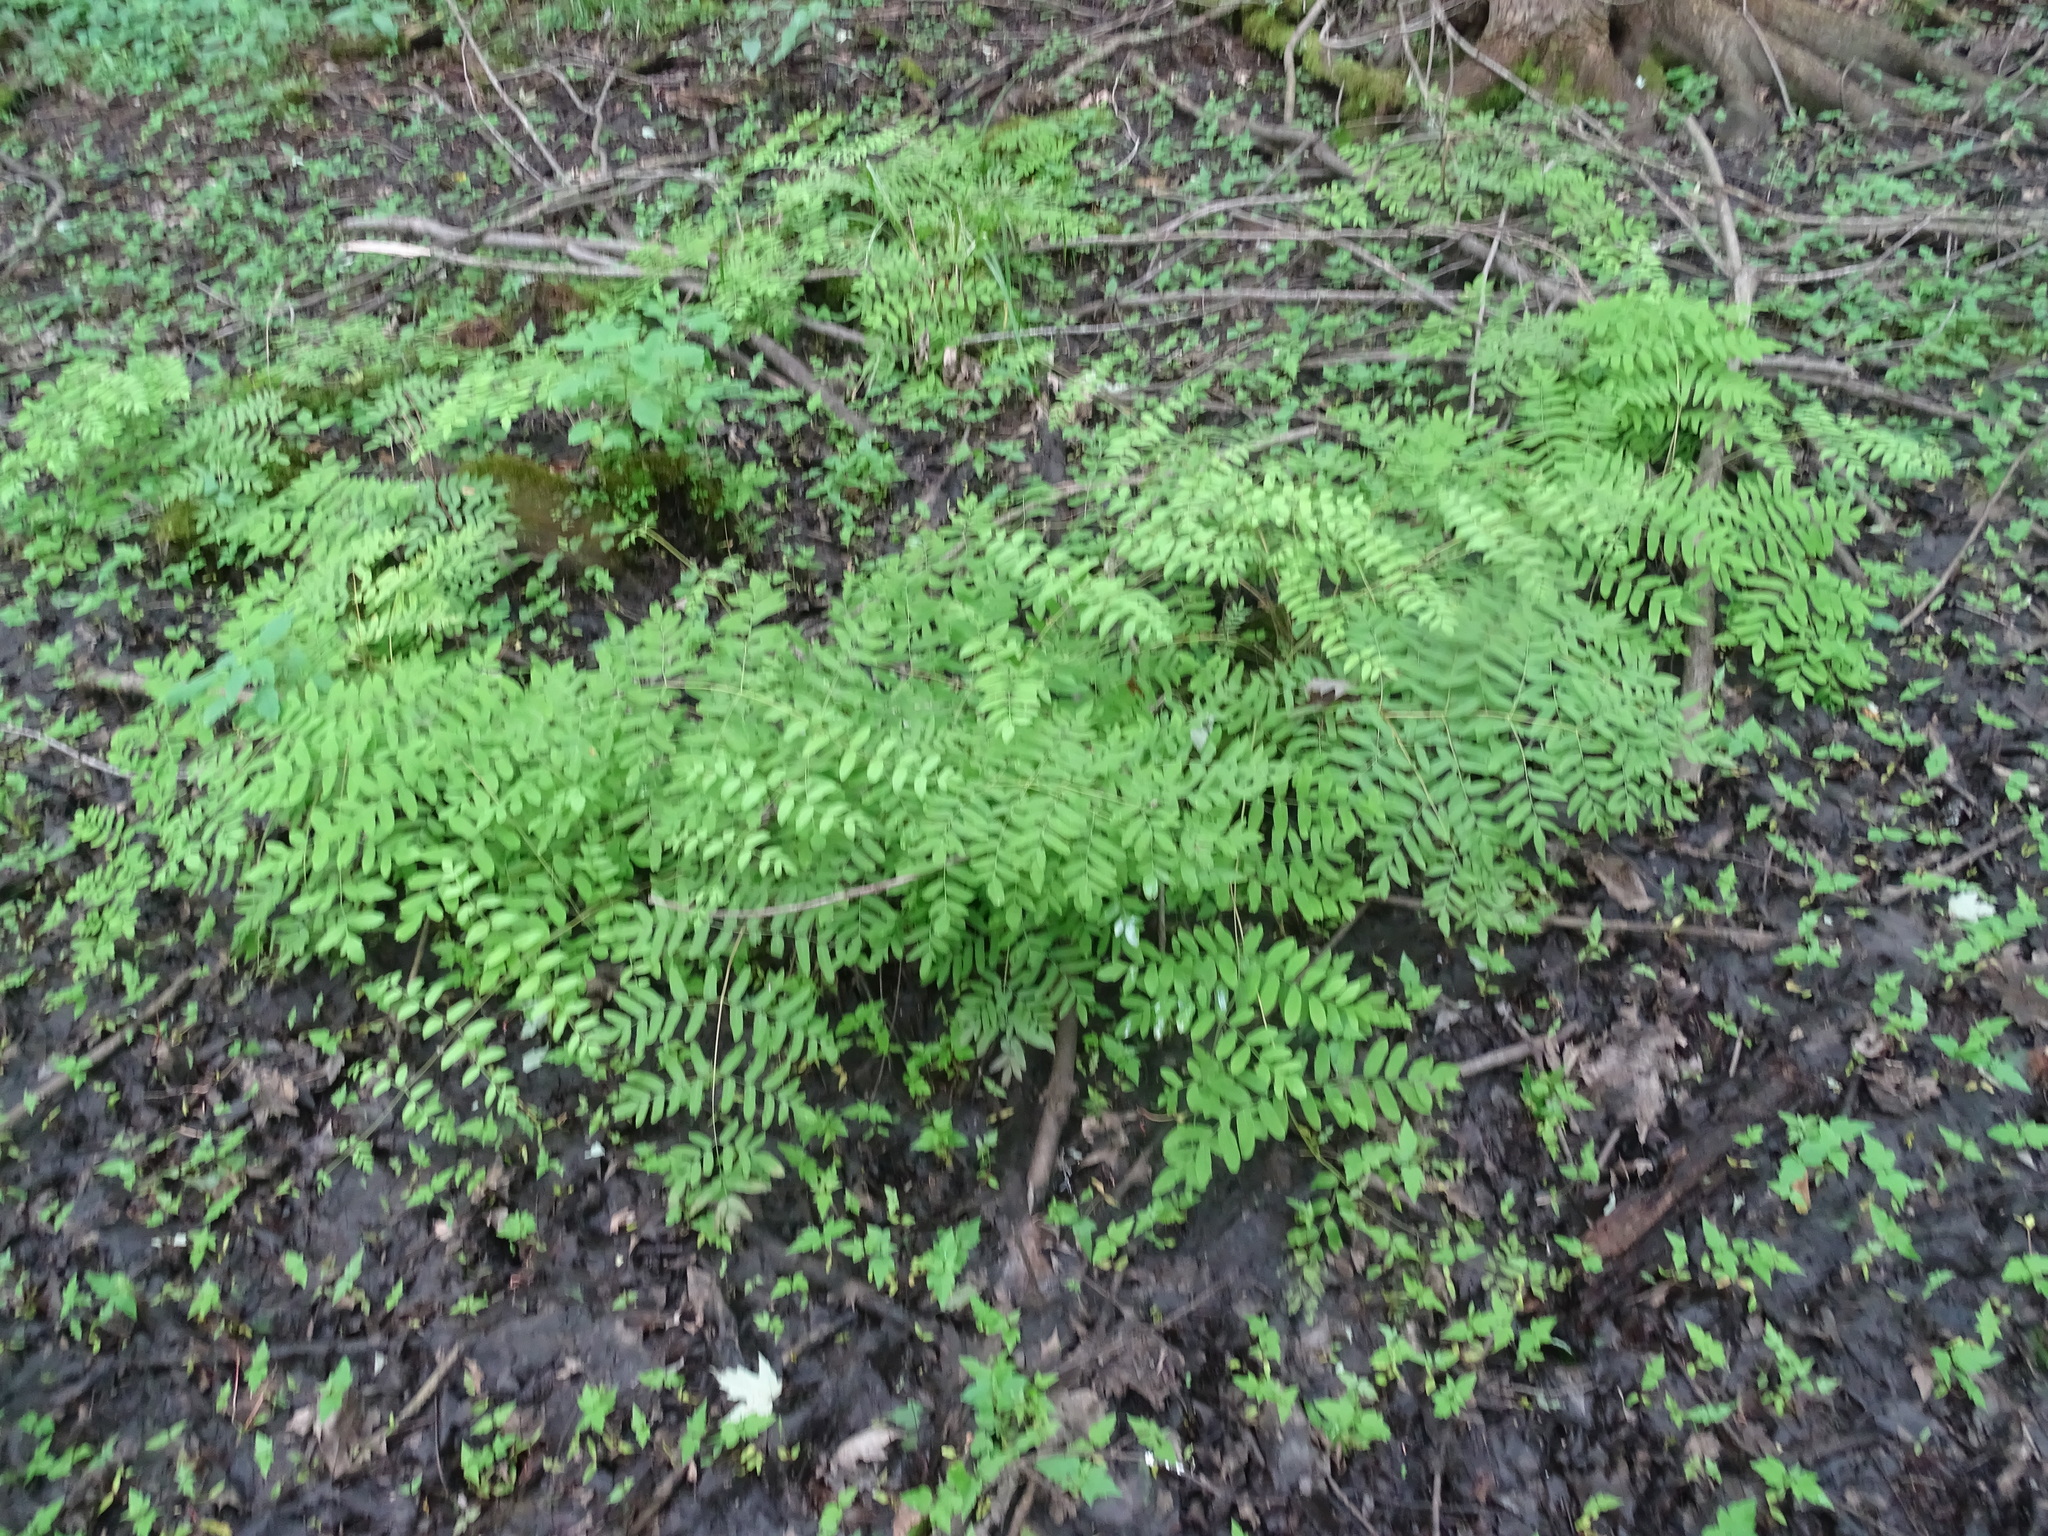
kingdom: Plantae
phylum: Tracheophyta
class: Polypodiopsida
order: Osmundales
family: Osmundaceae
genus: Osmunda
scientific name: Osmunda spectabilis
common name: American royal fern
